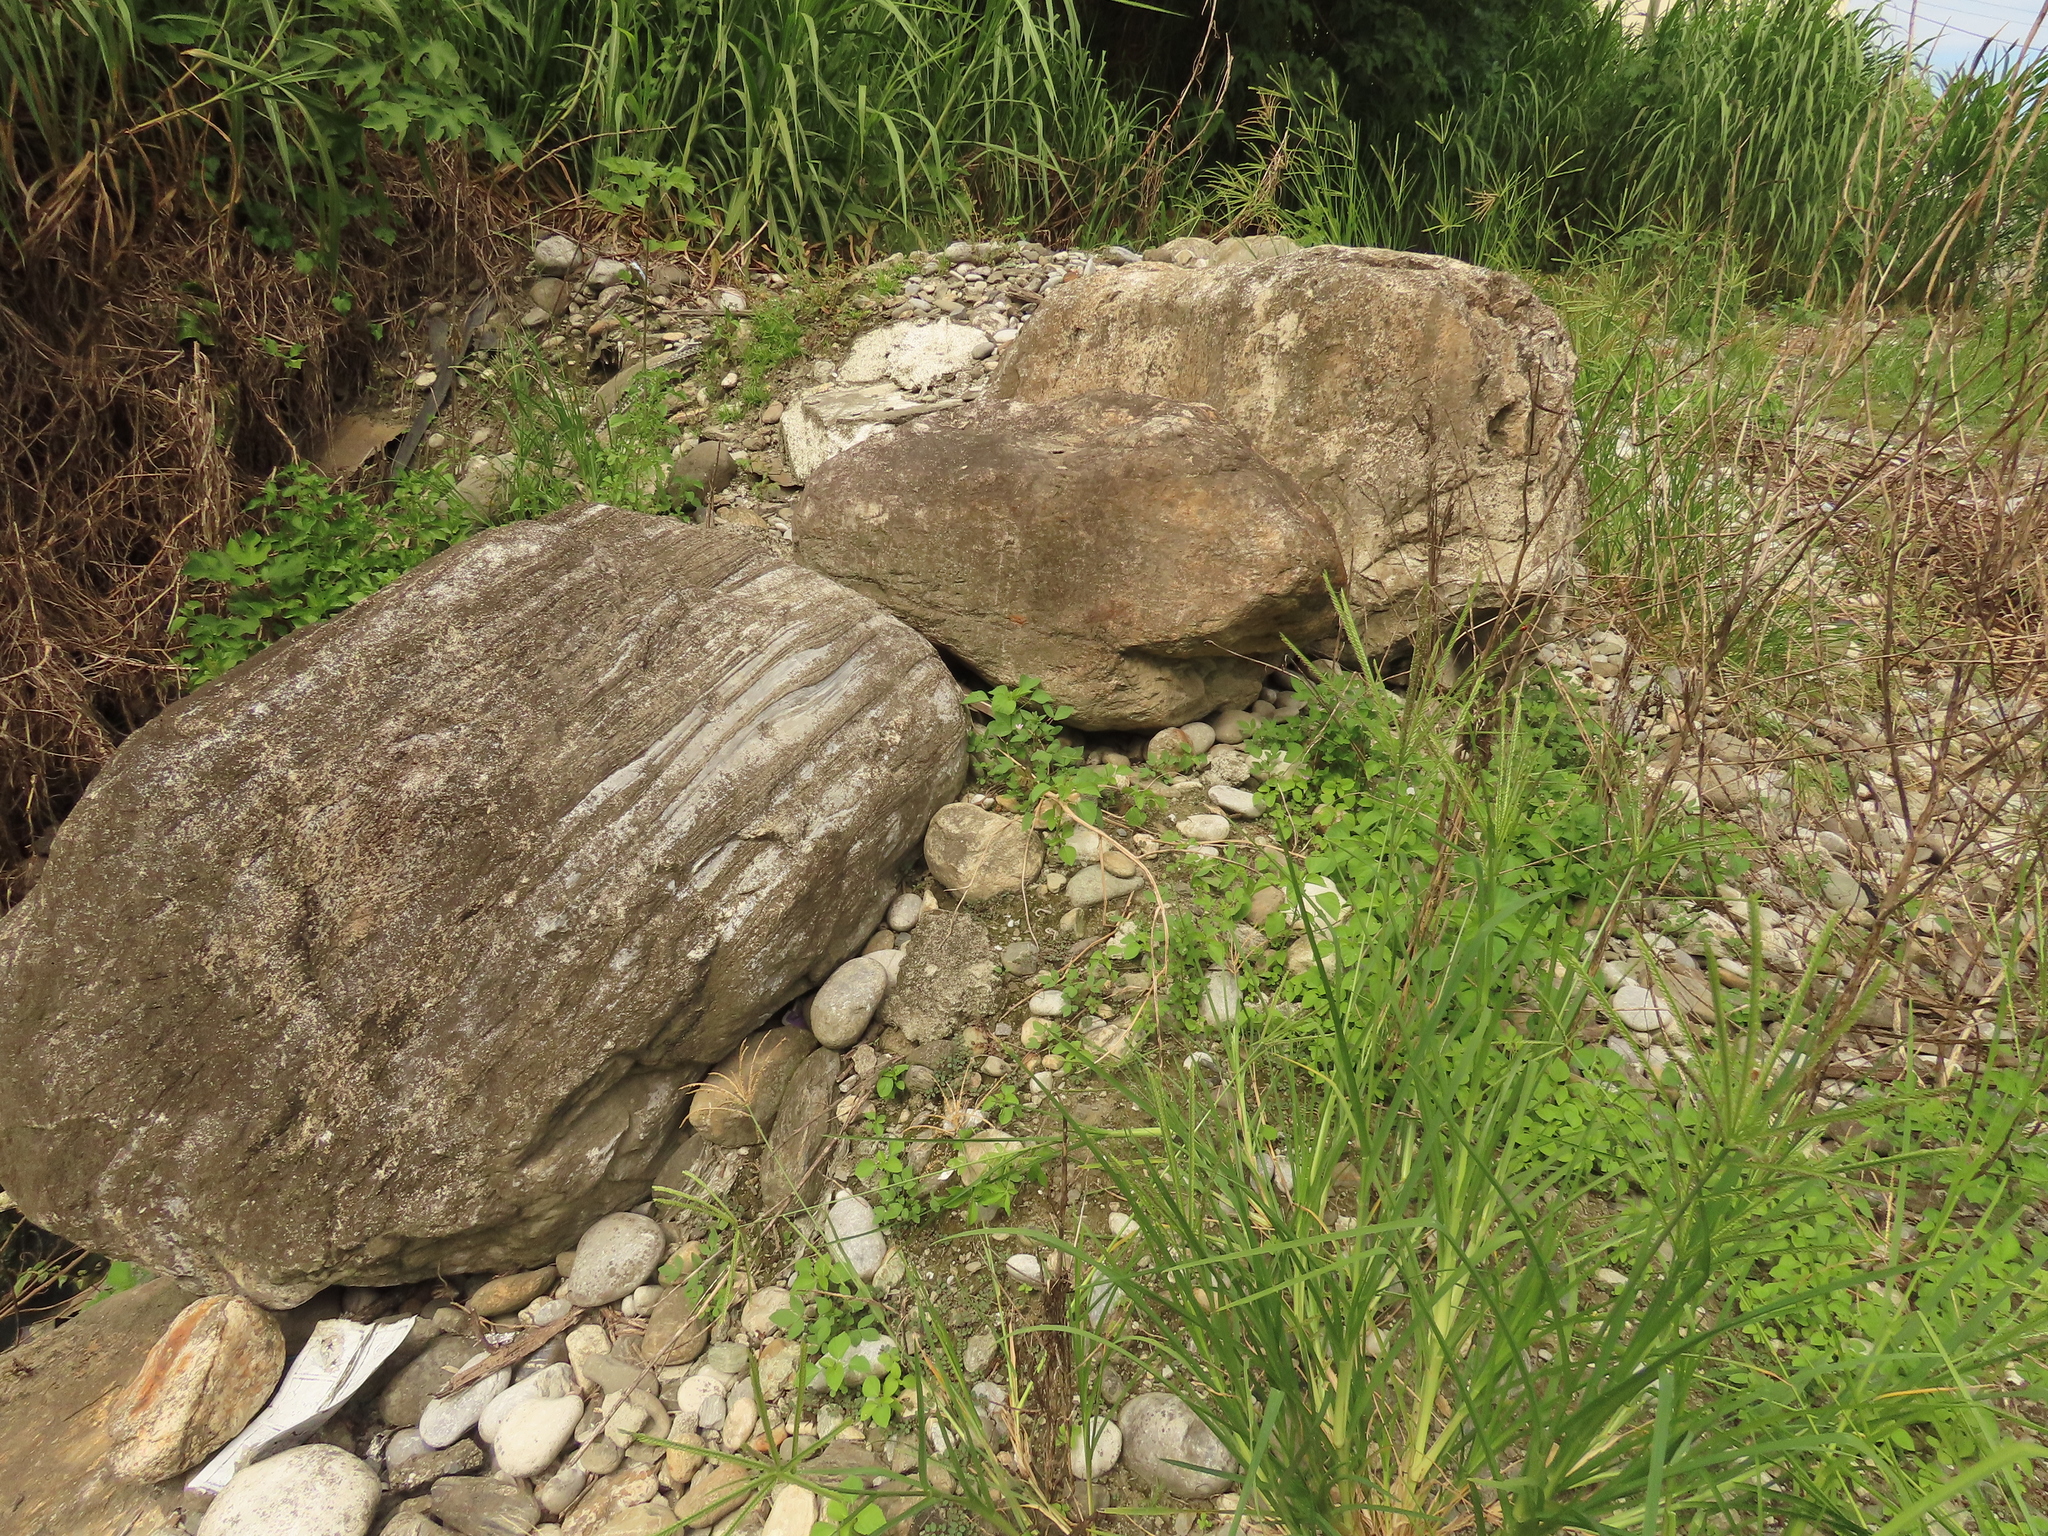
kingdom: Plantae
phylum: Tracheophyta
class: Magnoliopsida
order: Brassicales
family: Cleomaceae
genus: Sieruela
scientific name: Sieruela rutidosperma
